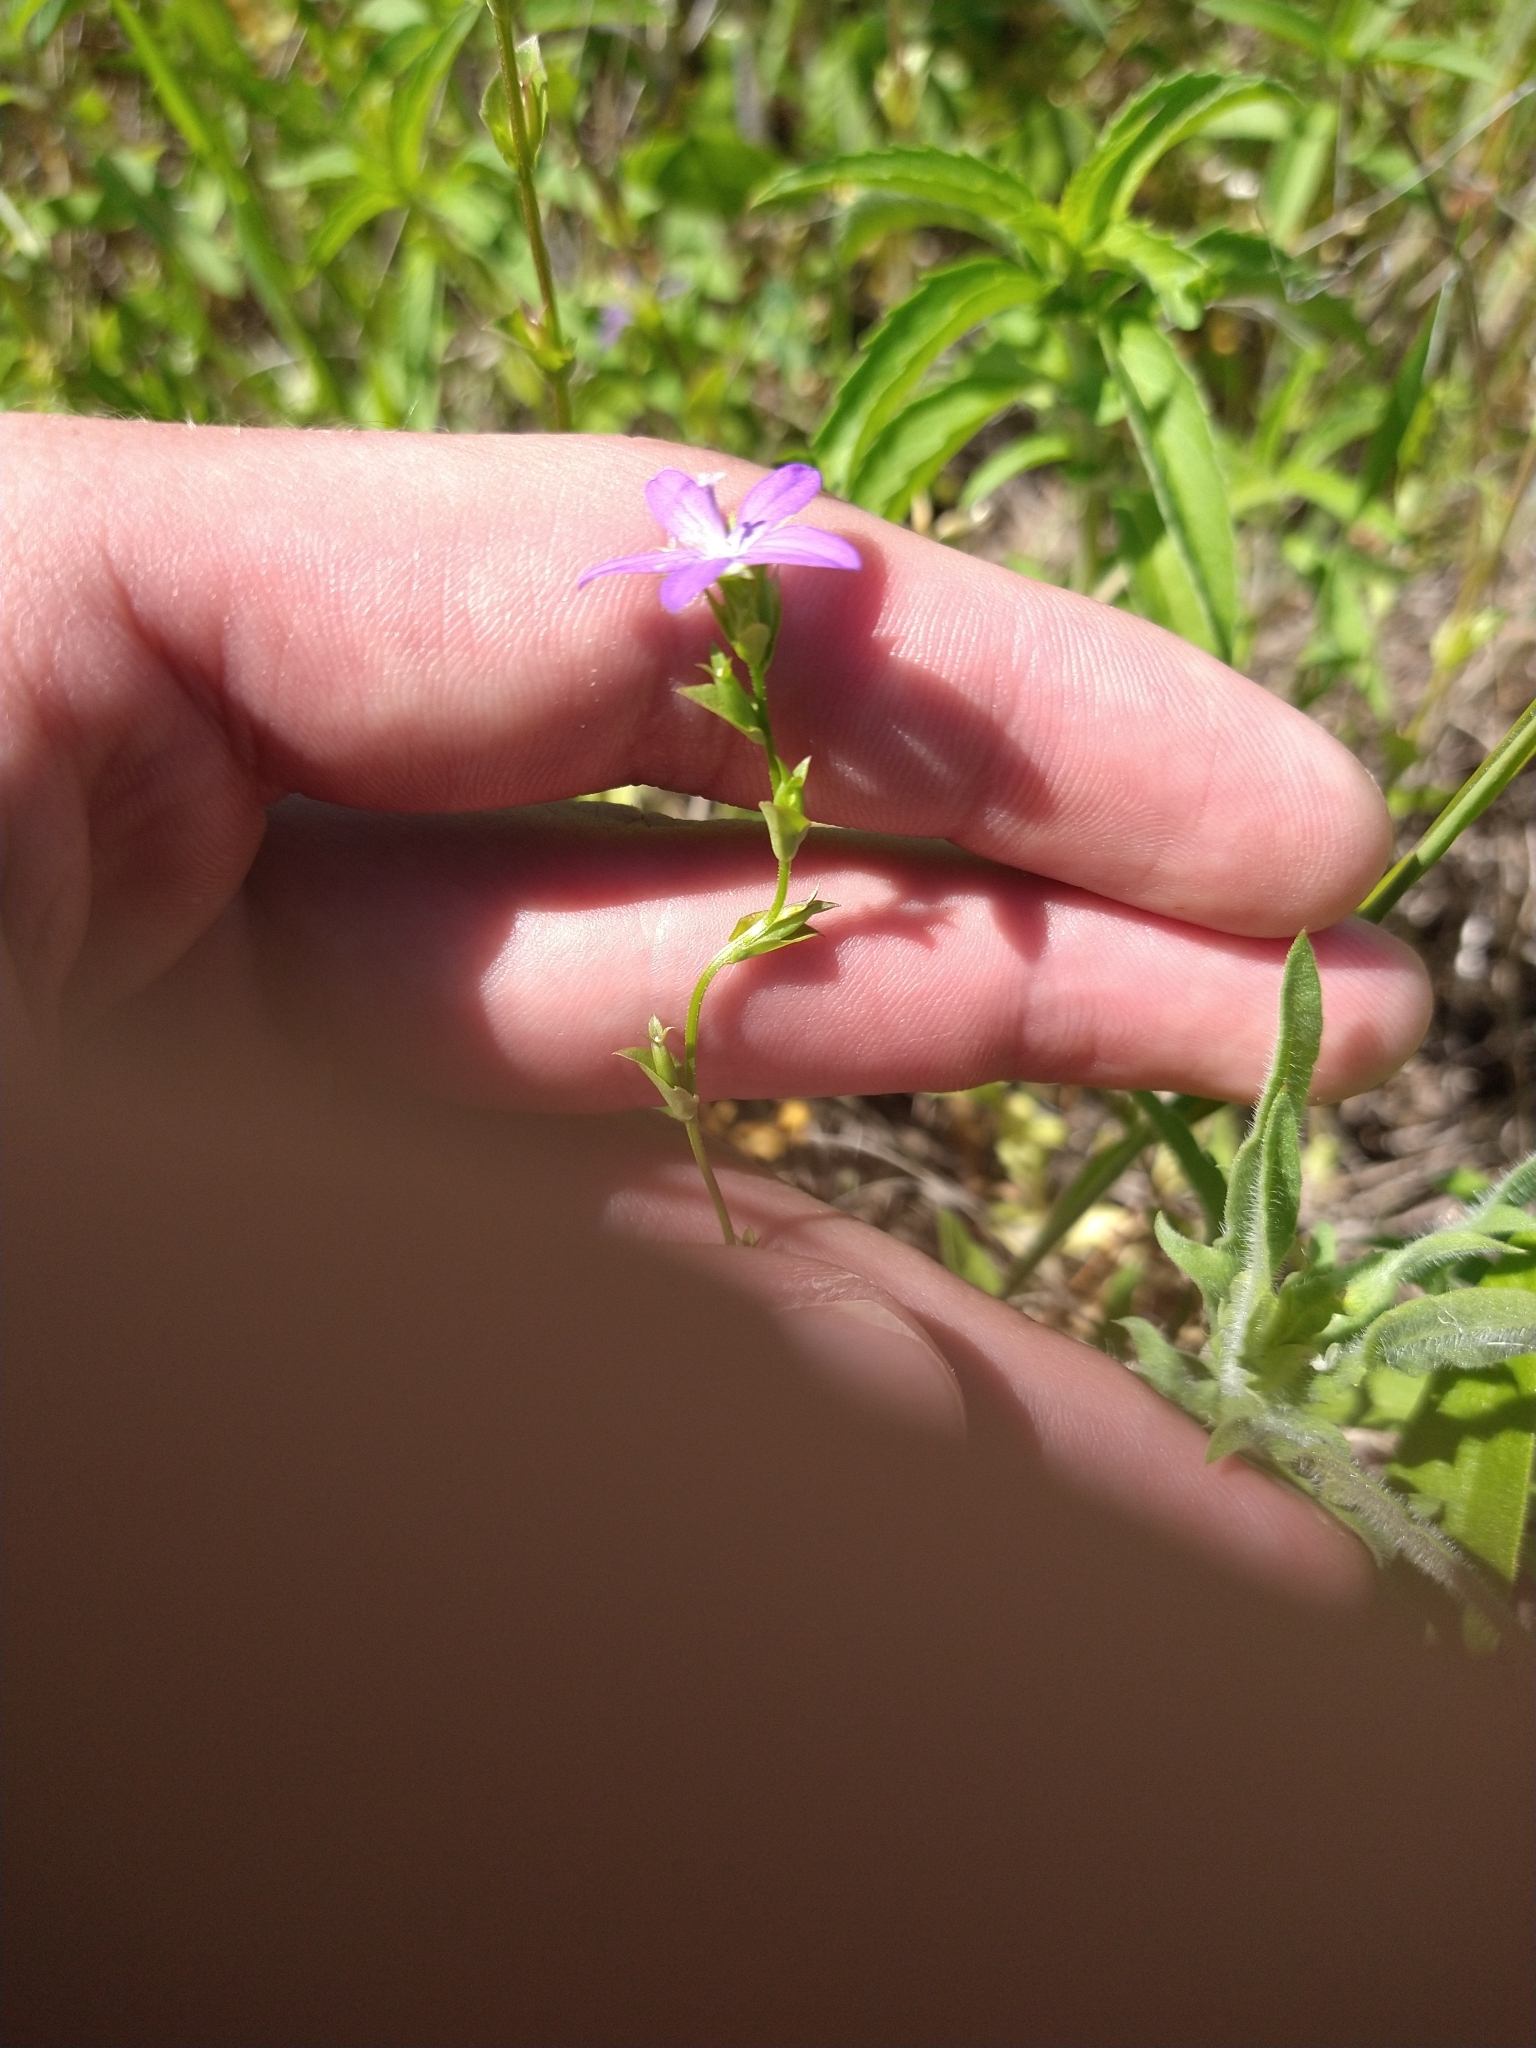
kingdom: Plantae
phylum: Tracheophyta
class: Magnoliopsida
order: Asterales
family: Campanulaceae
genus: Triodanis
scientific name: Triodanis biflora
